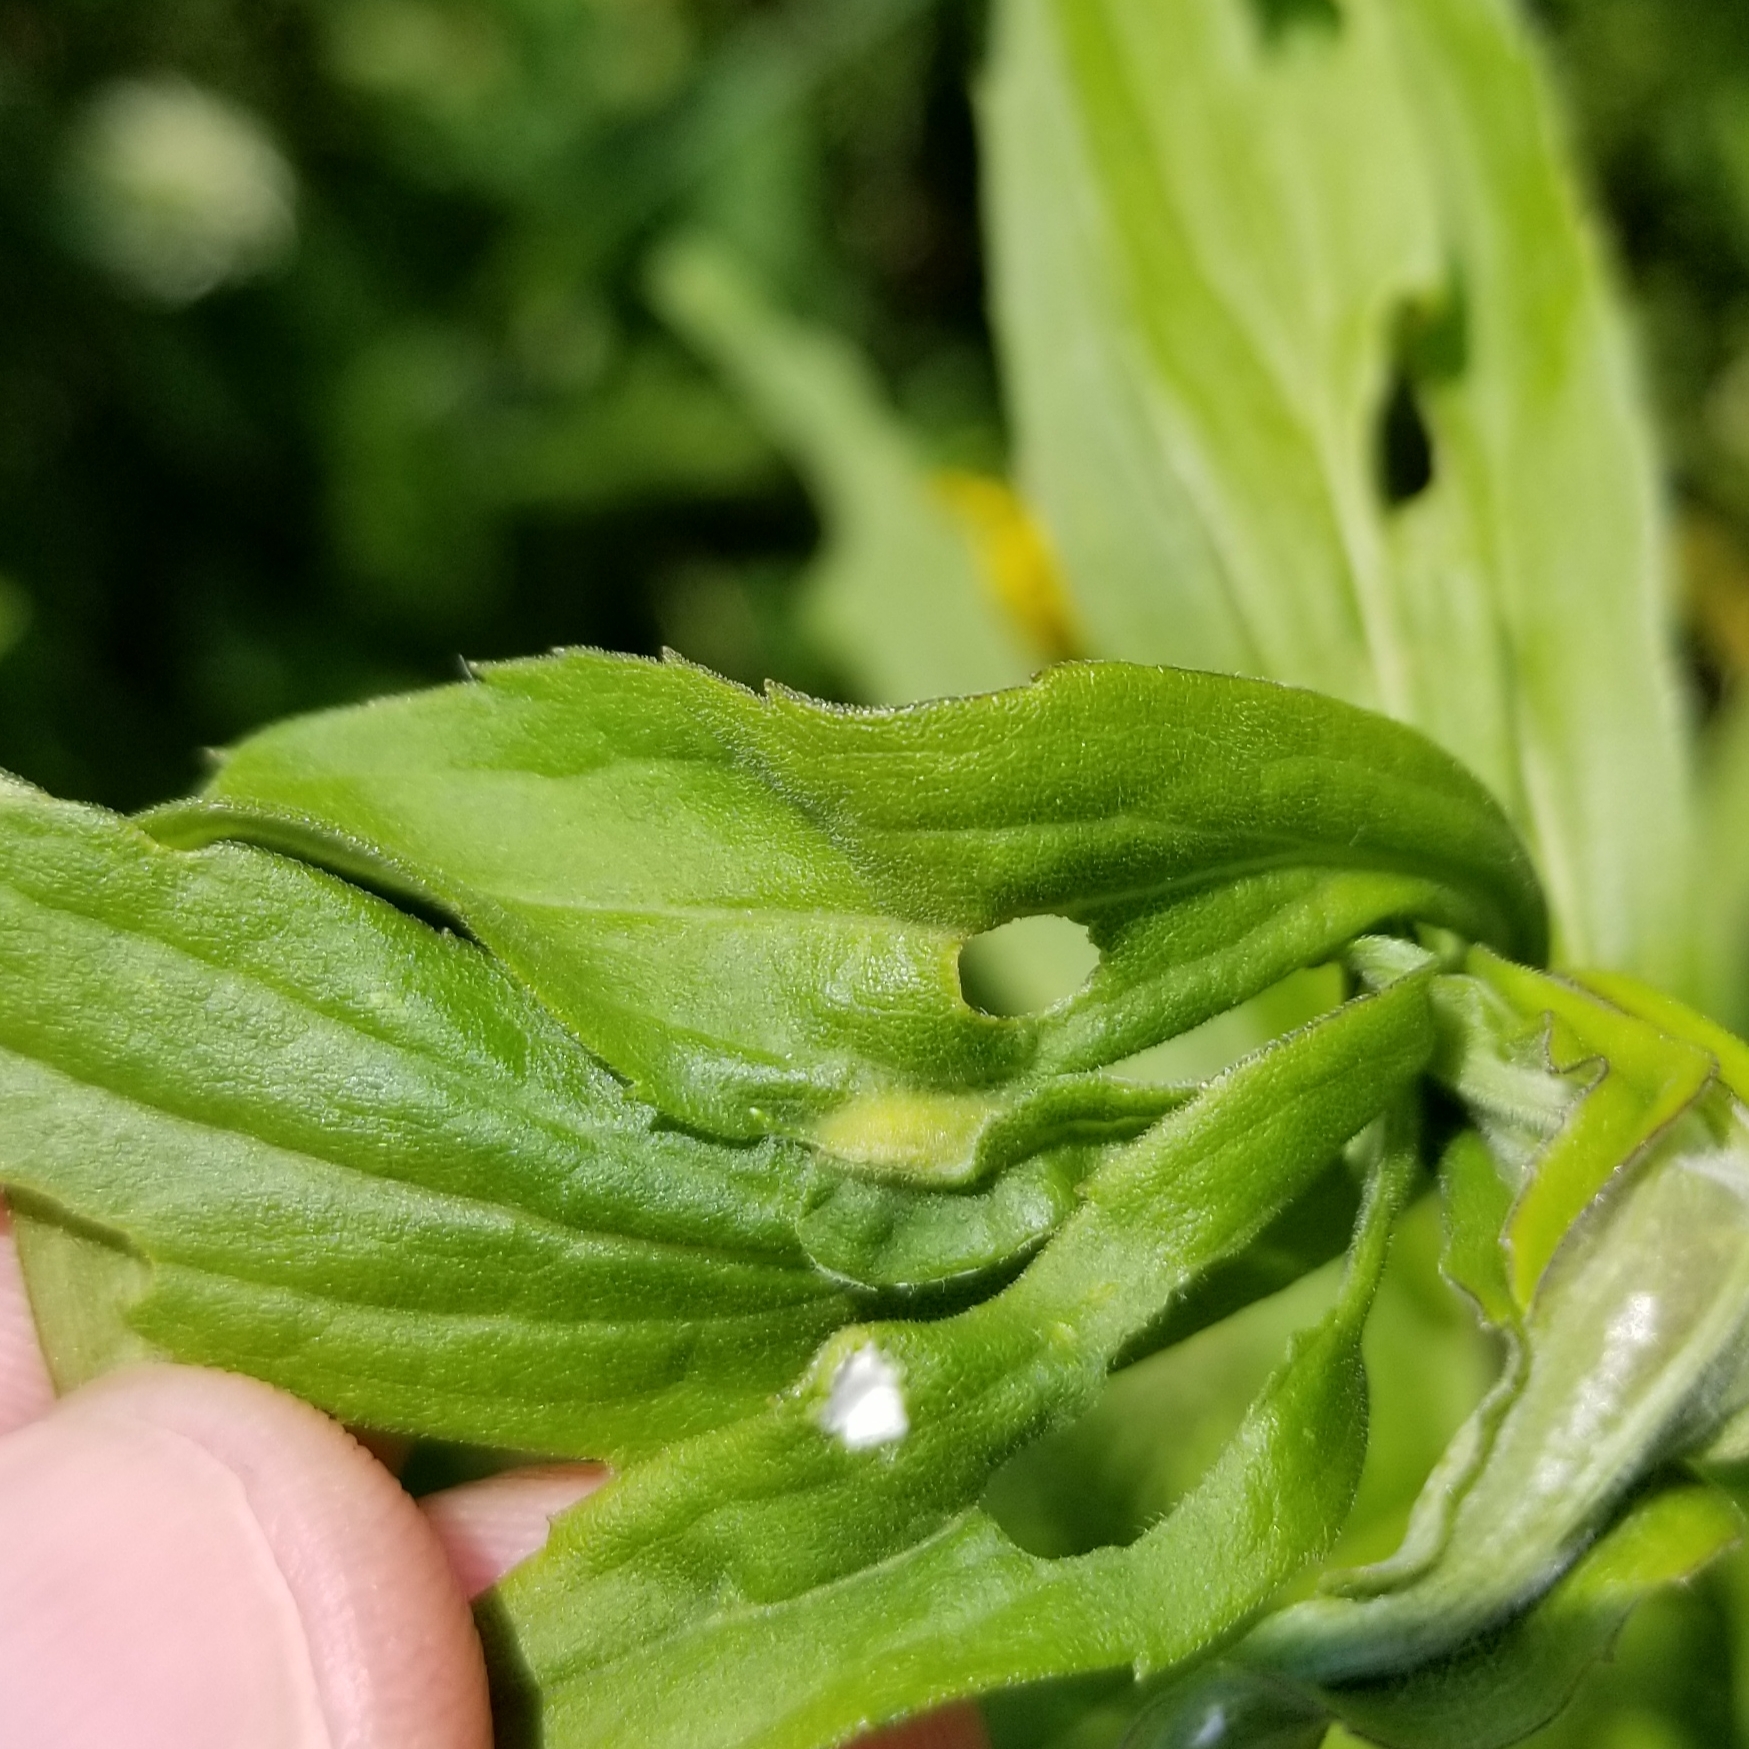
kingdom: Animalia
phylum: Arthropoda
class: Insecta
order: Diptera
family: Cecidomyiidae
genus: Asphondylia
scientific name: Asphondylia solidaginis
